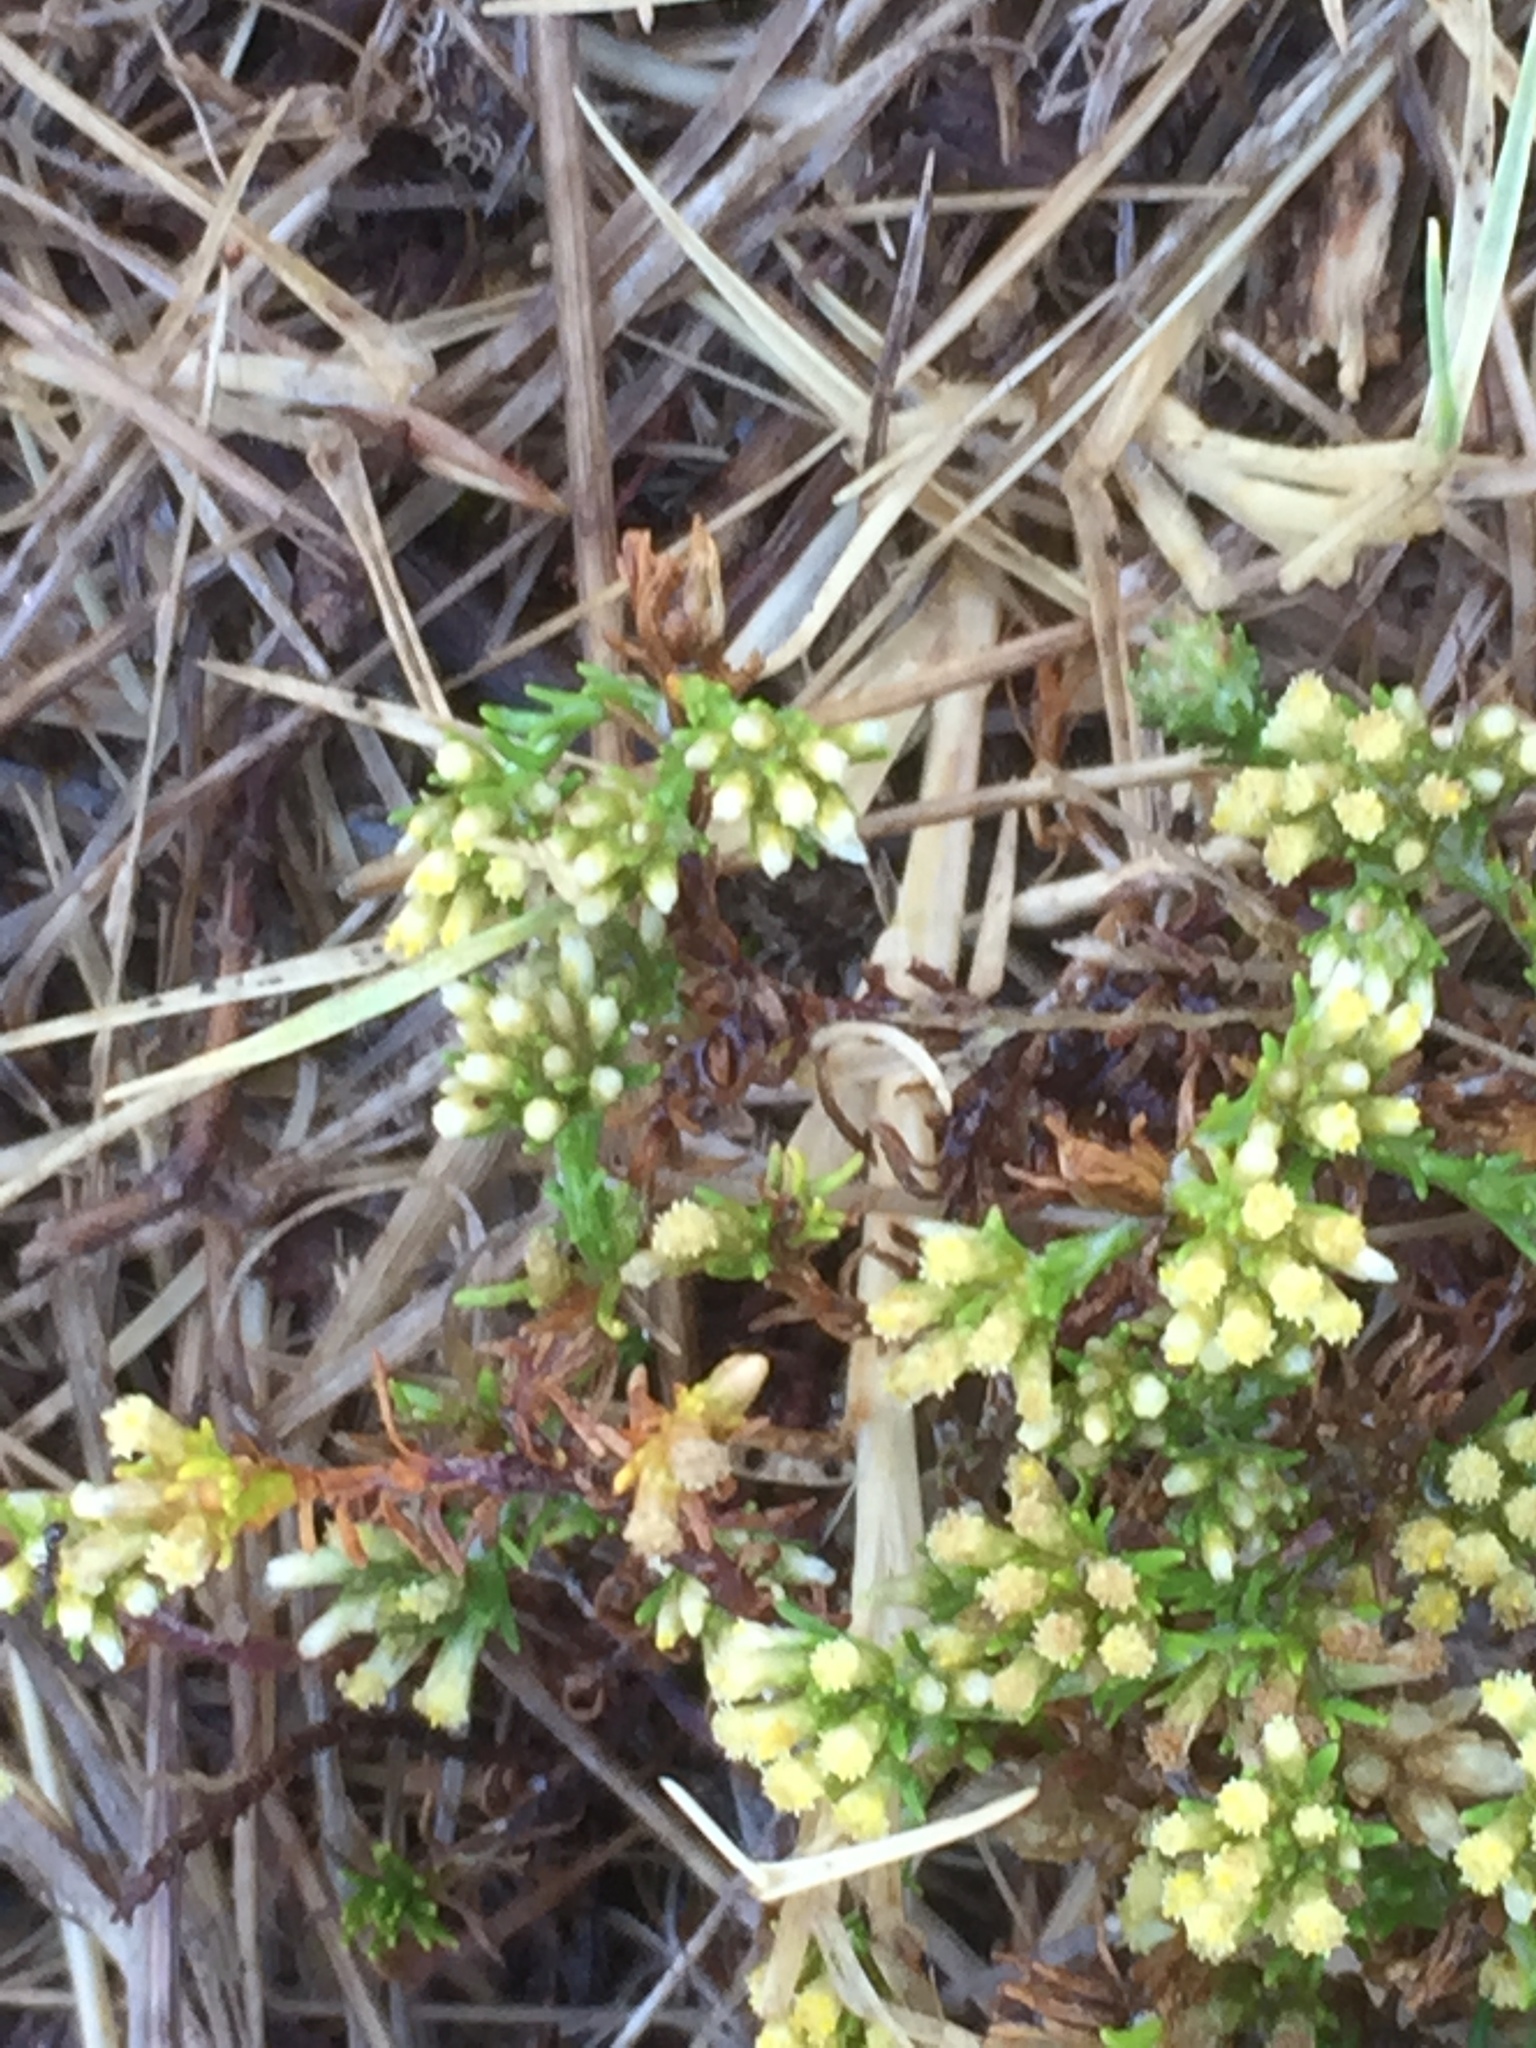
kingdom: Plantae
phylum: Tracheophyta
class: Magnoliopsida
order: Asterales
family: Asteraceae
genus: Helichrysum
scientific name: Helichrysum niveum
